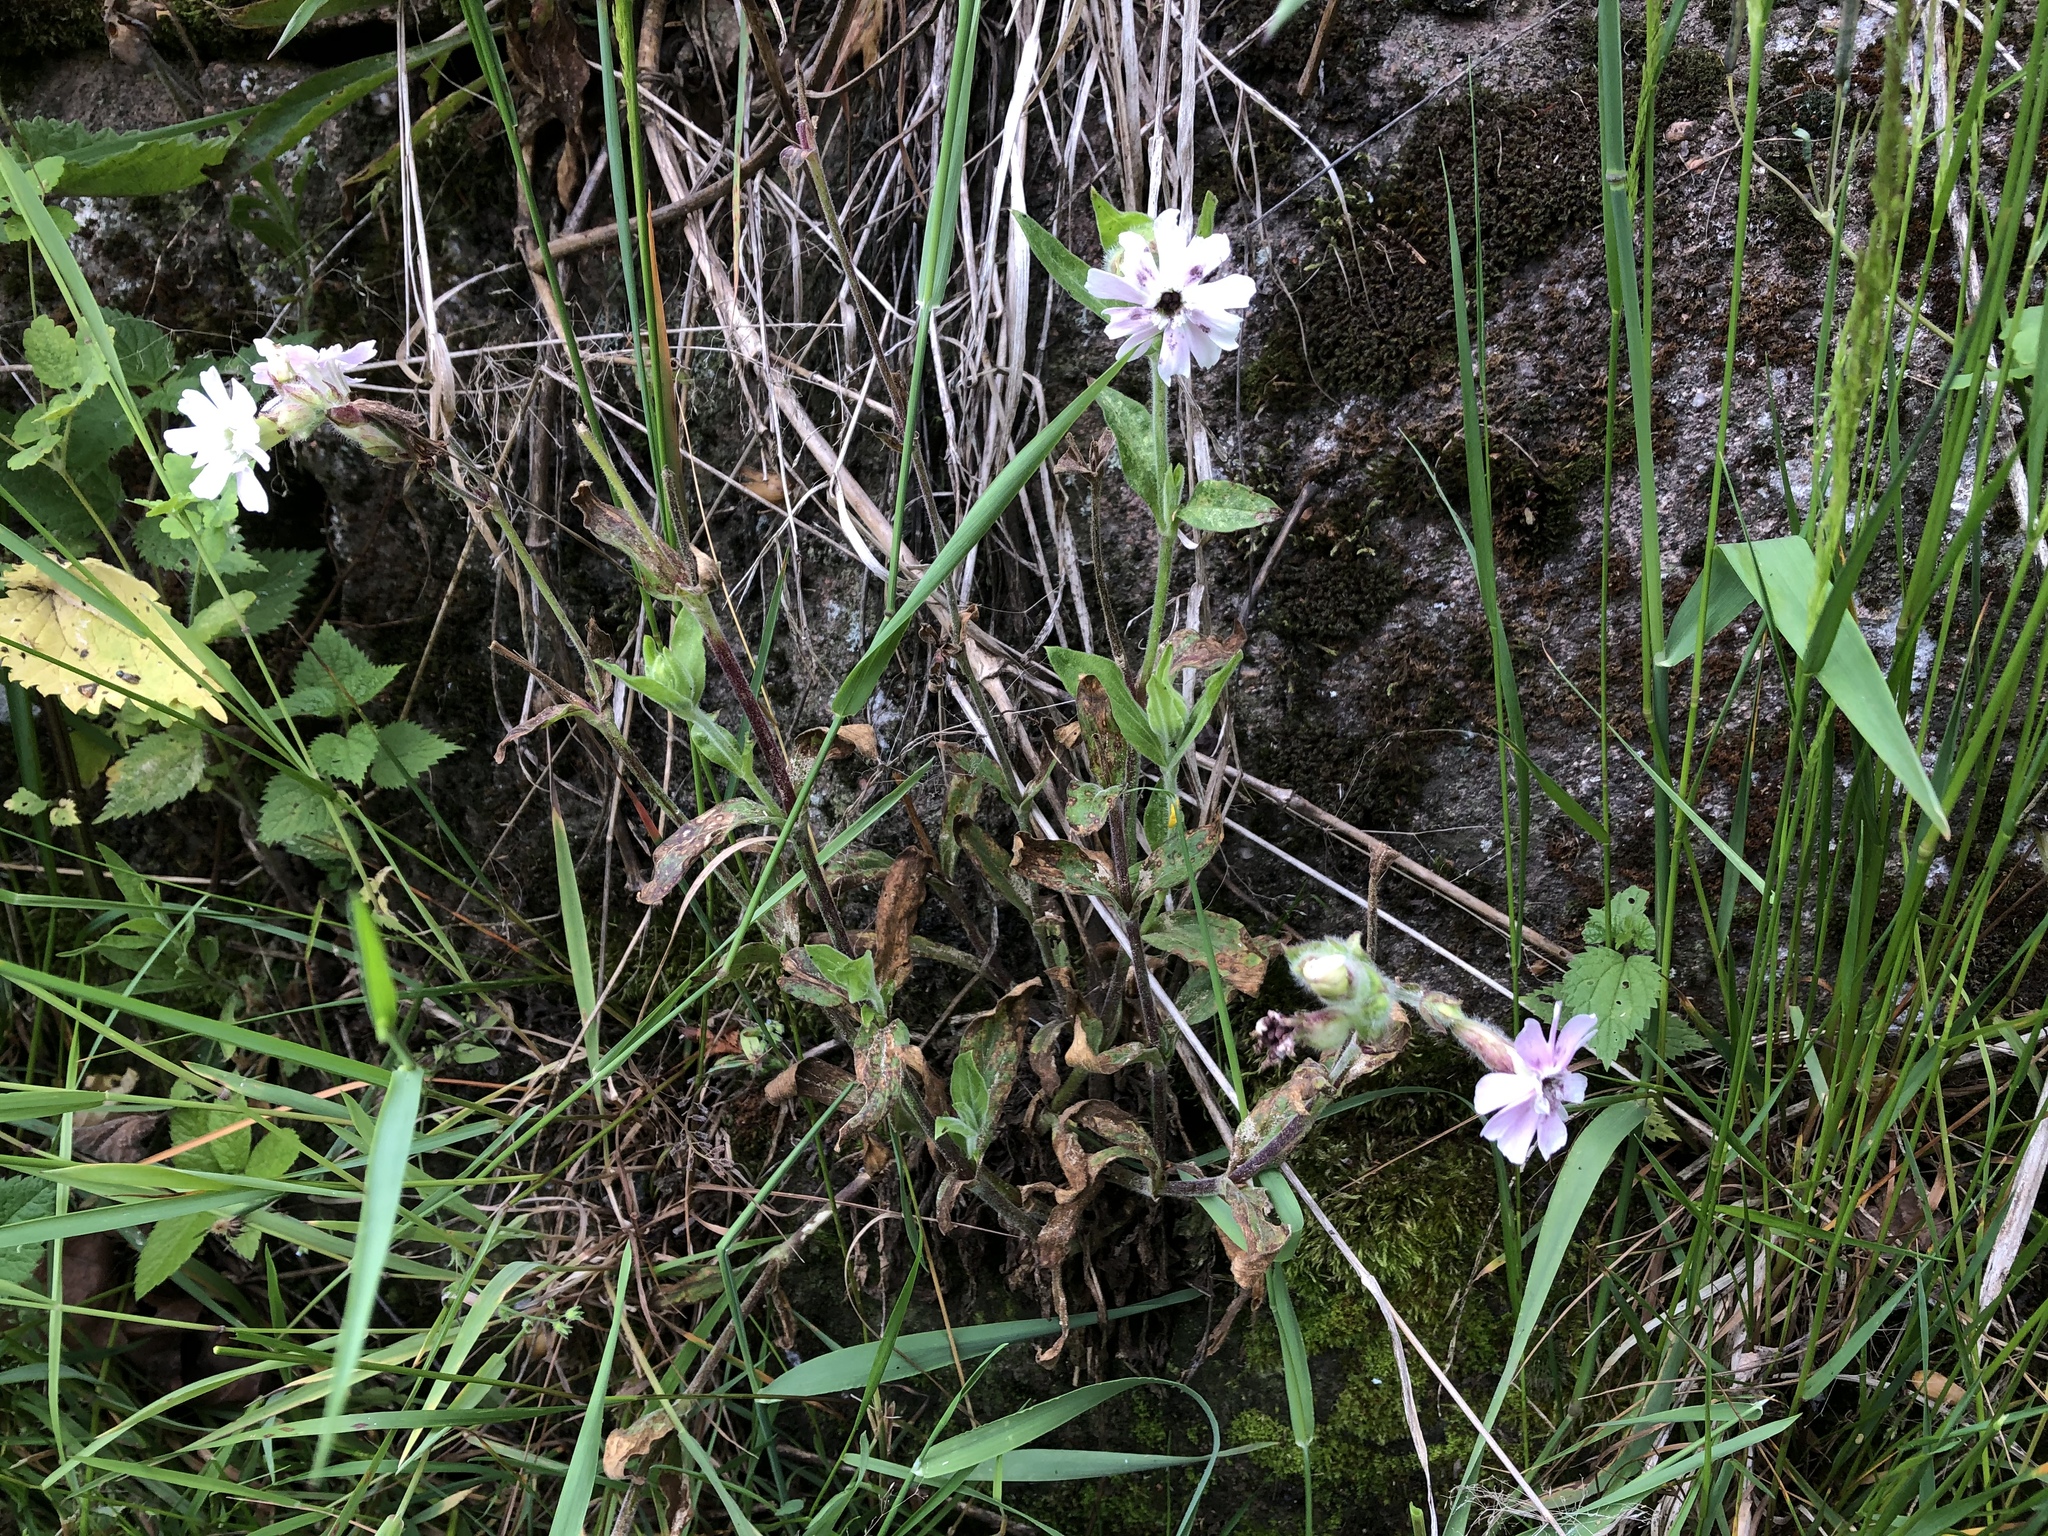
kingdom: Plantae
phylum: Tracheophyta
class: Magnoliopsida
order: Caryophyllales
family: Caryophyllaceae
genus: Silene
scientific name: Silene dioica
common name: Red campion
